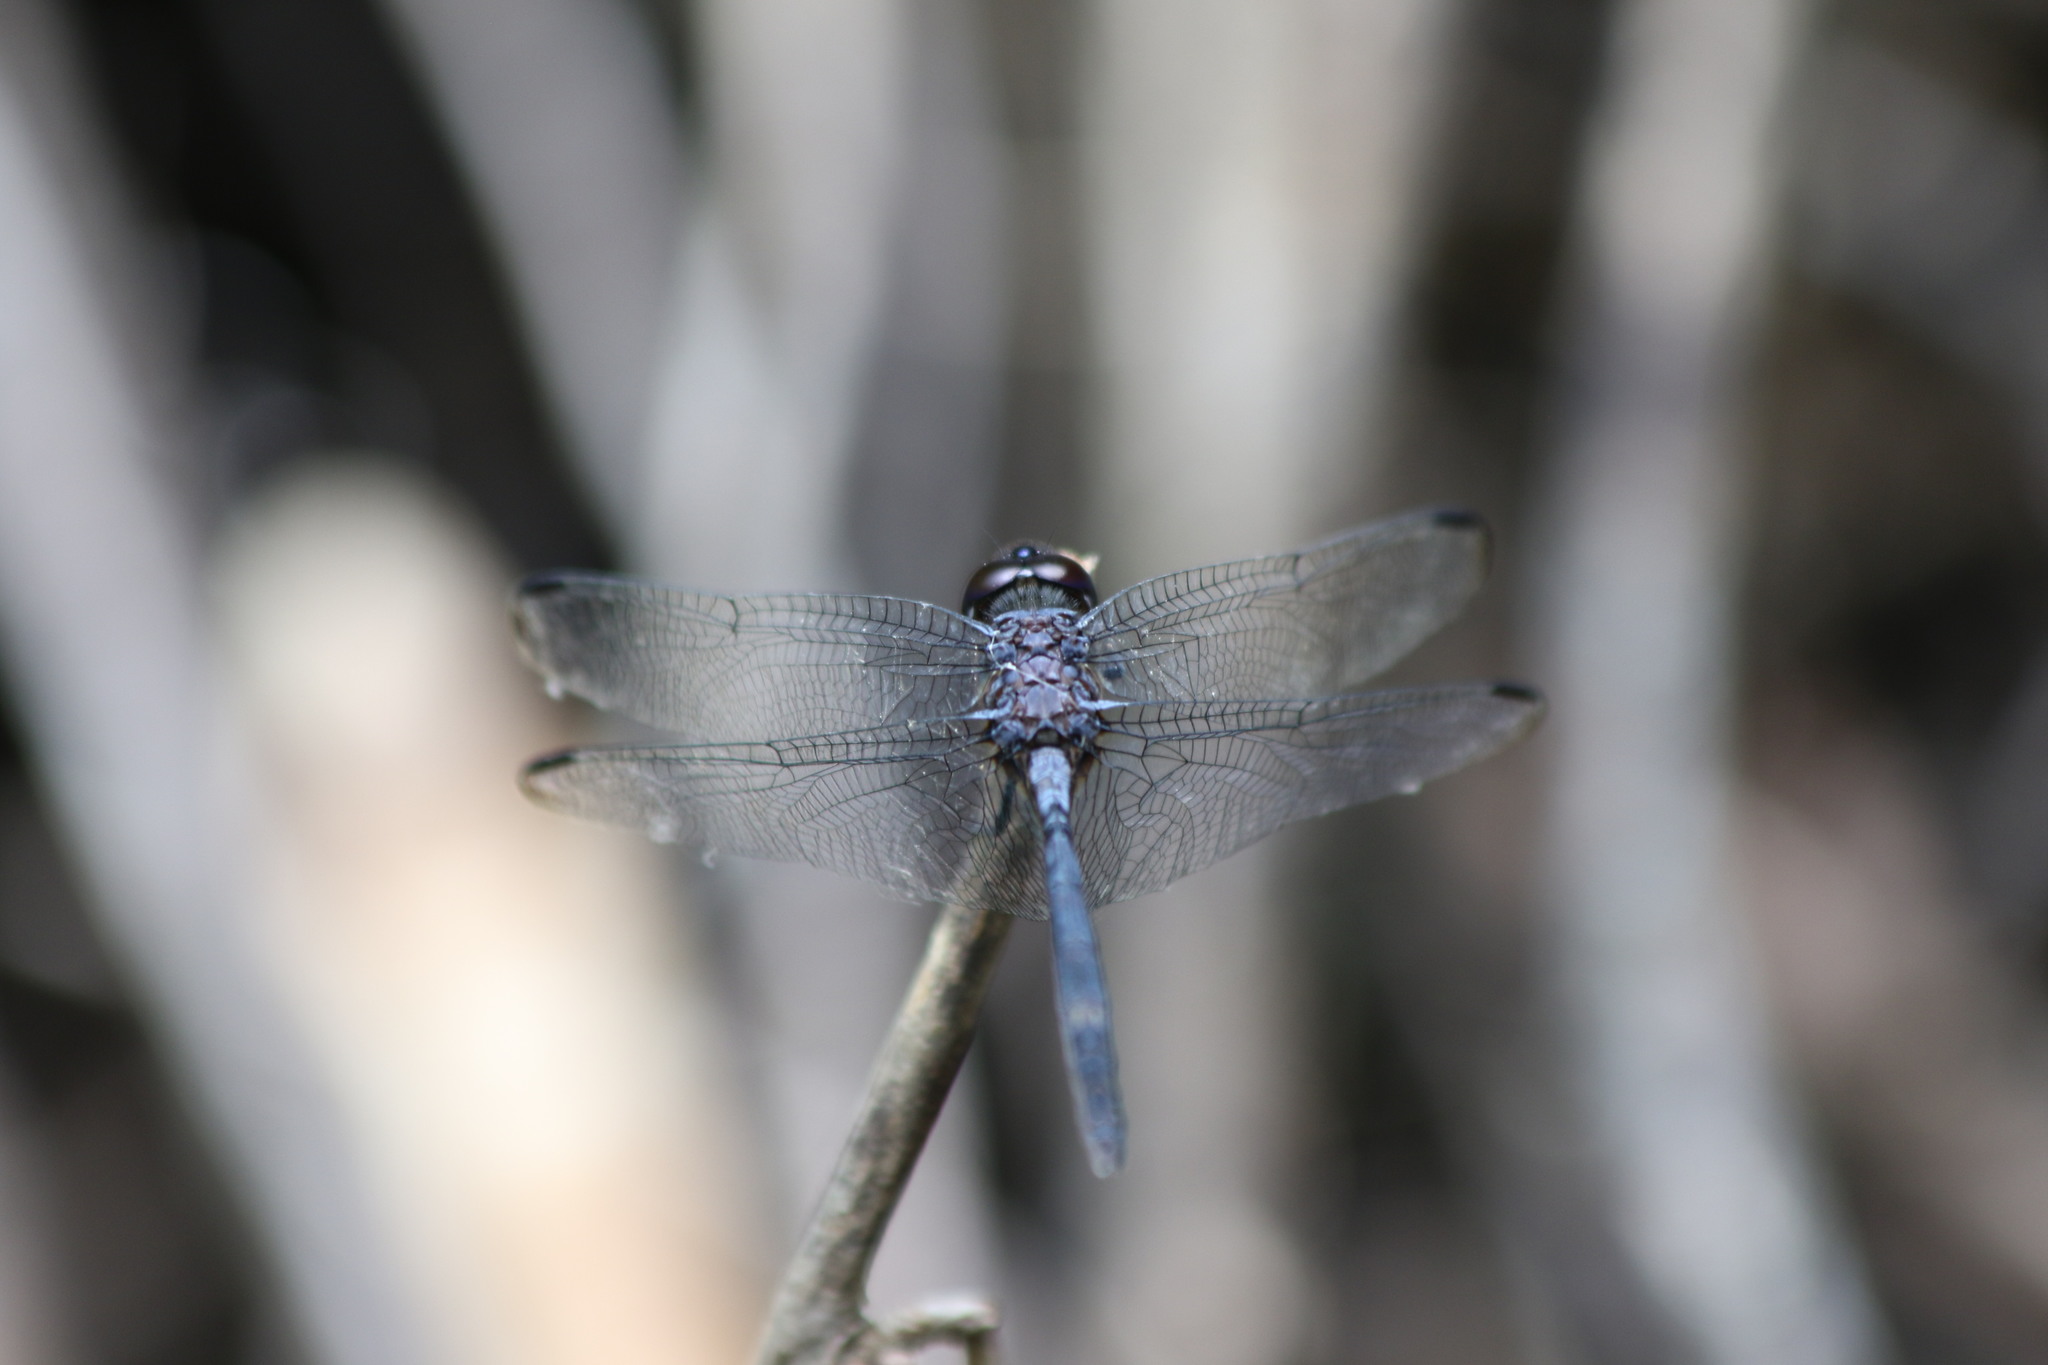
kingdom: Animalia
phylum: Arthropoda
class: Insecta
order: Odonata
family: Libellulidae
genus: Dythemis
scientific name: Dythemis nigrescens
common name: Black setwing
